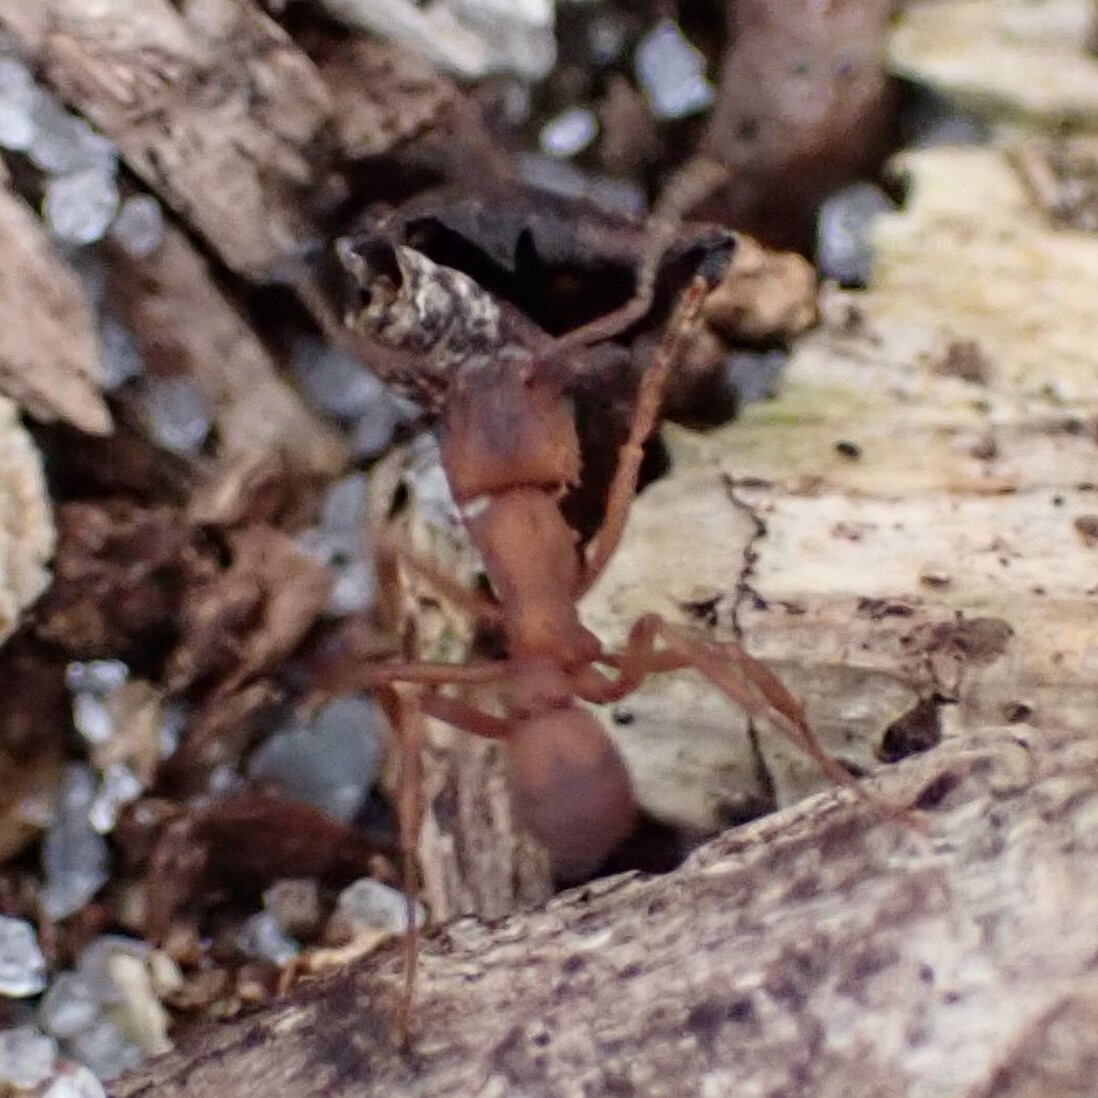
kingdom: Animalia
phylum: Arthropoda
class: Insecta
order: Hymenoptera
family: Formicidae
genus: Trachymyrmex
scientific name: Trachymyrmex septentrionalis
